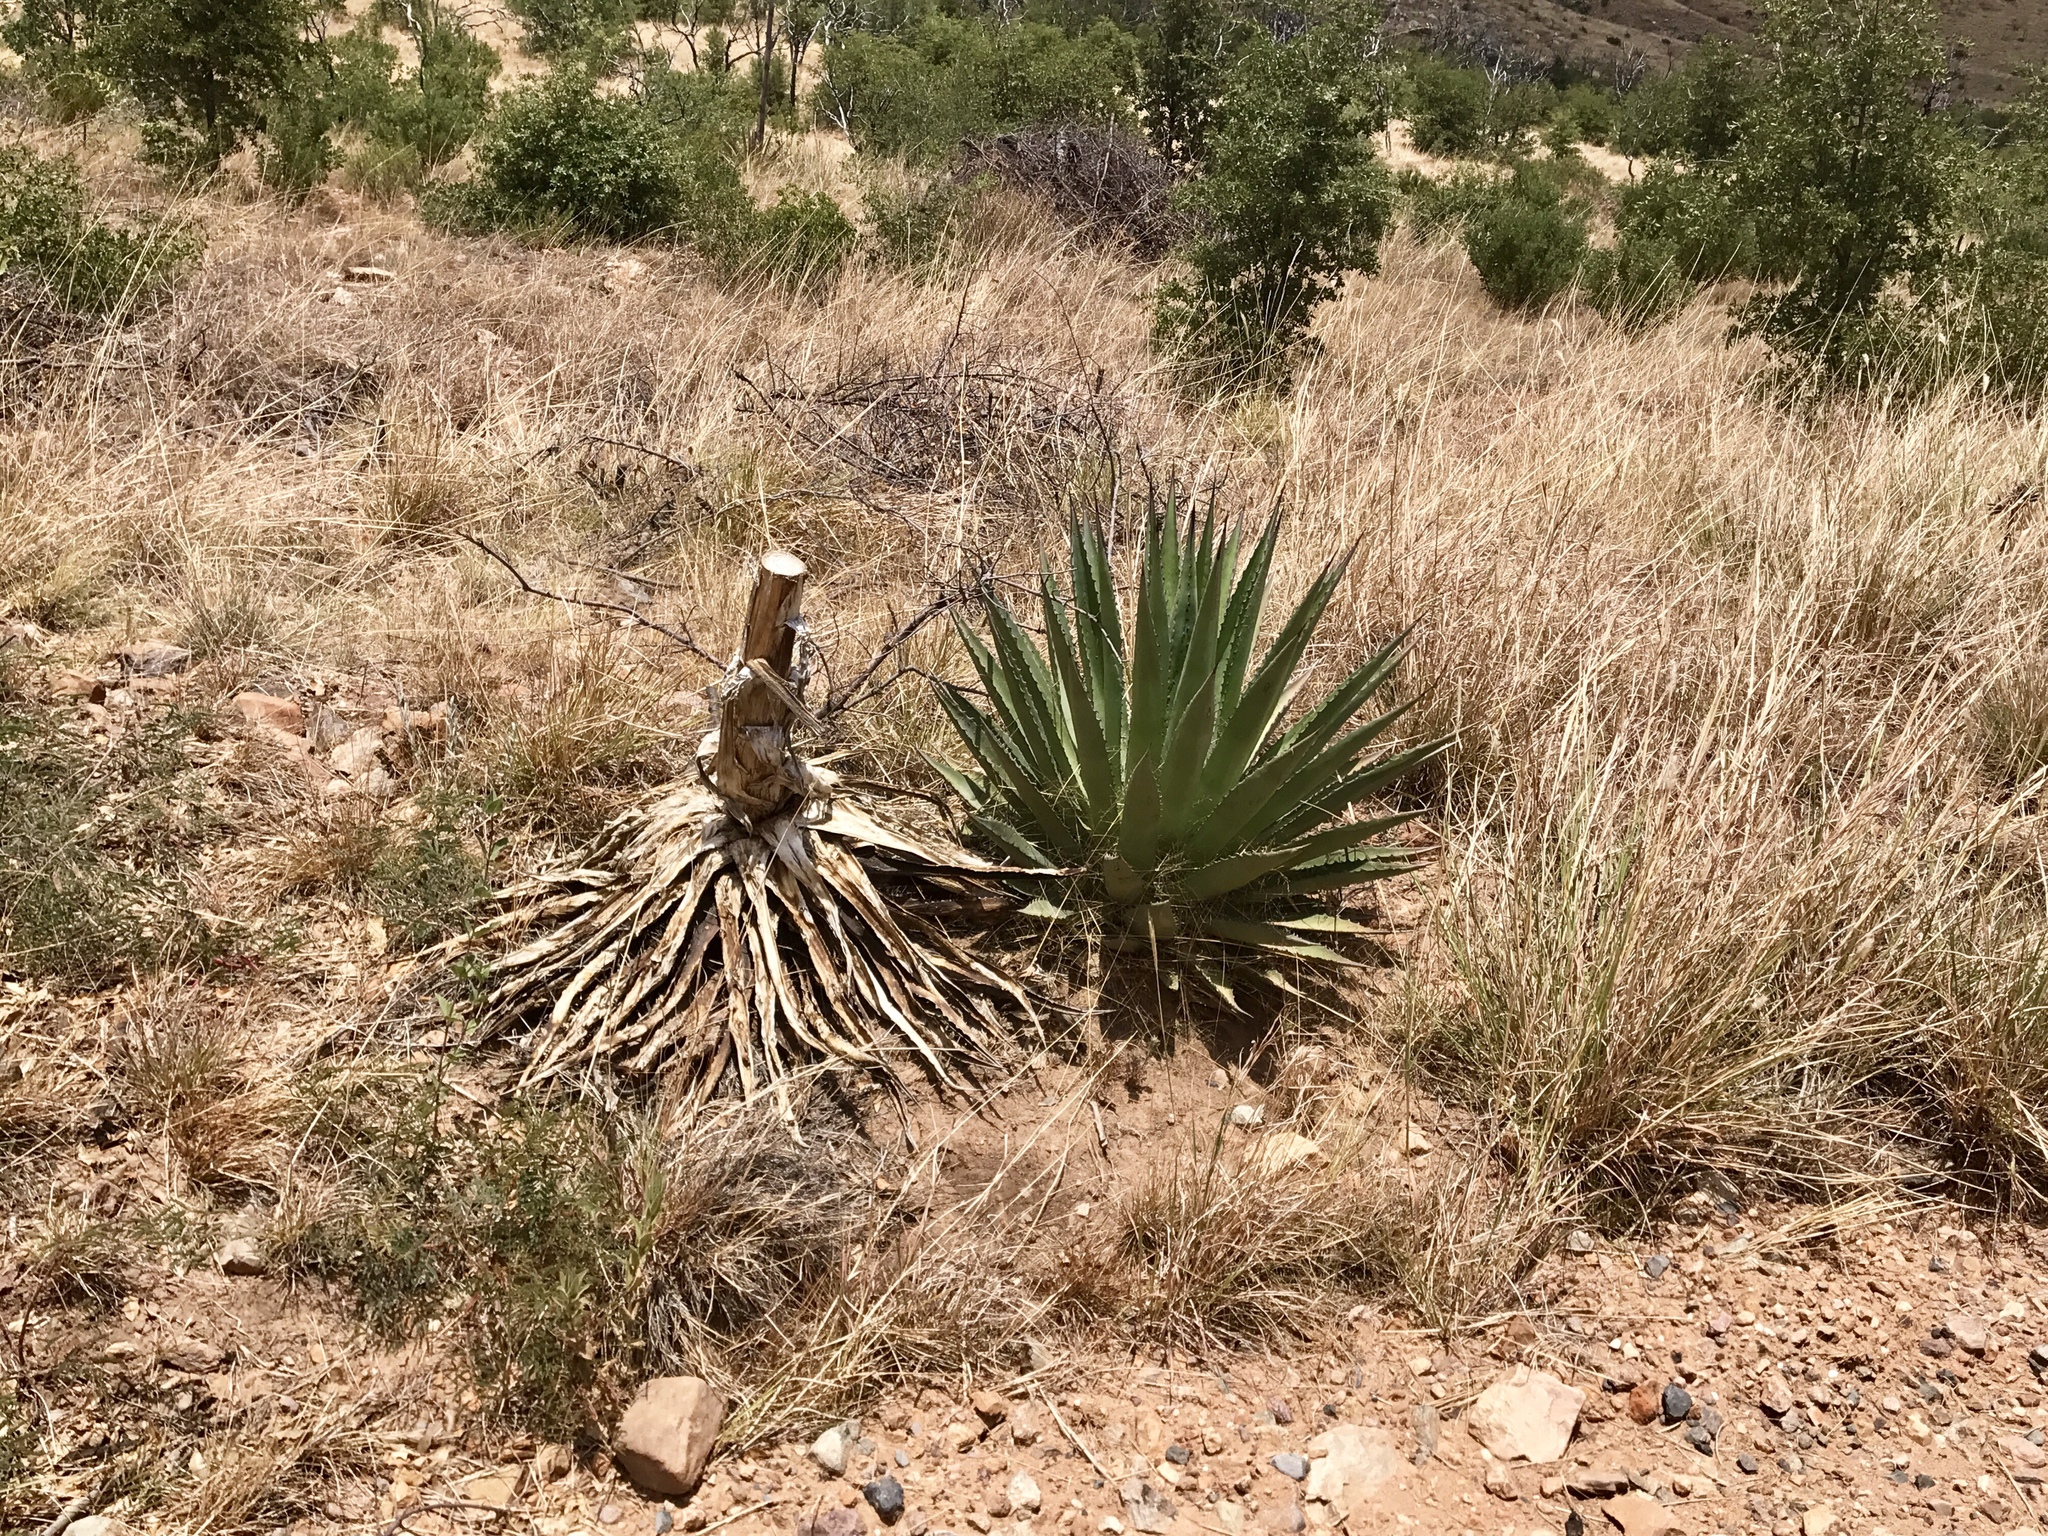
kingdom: Plantae
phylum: Tracheophyta
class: Liliopsida
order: Asparagales
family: Asparagaceae
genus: Agave
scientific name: Agave palmeri
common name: Palmer agave
